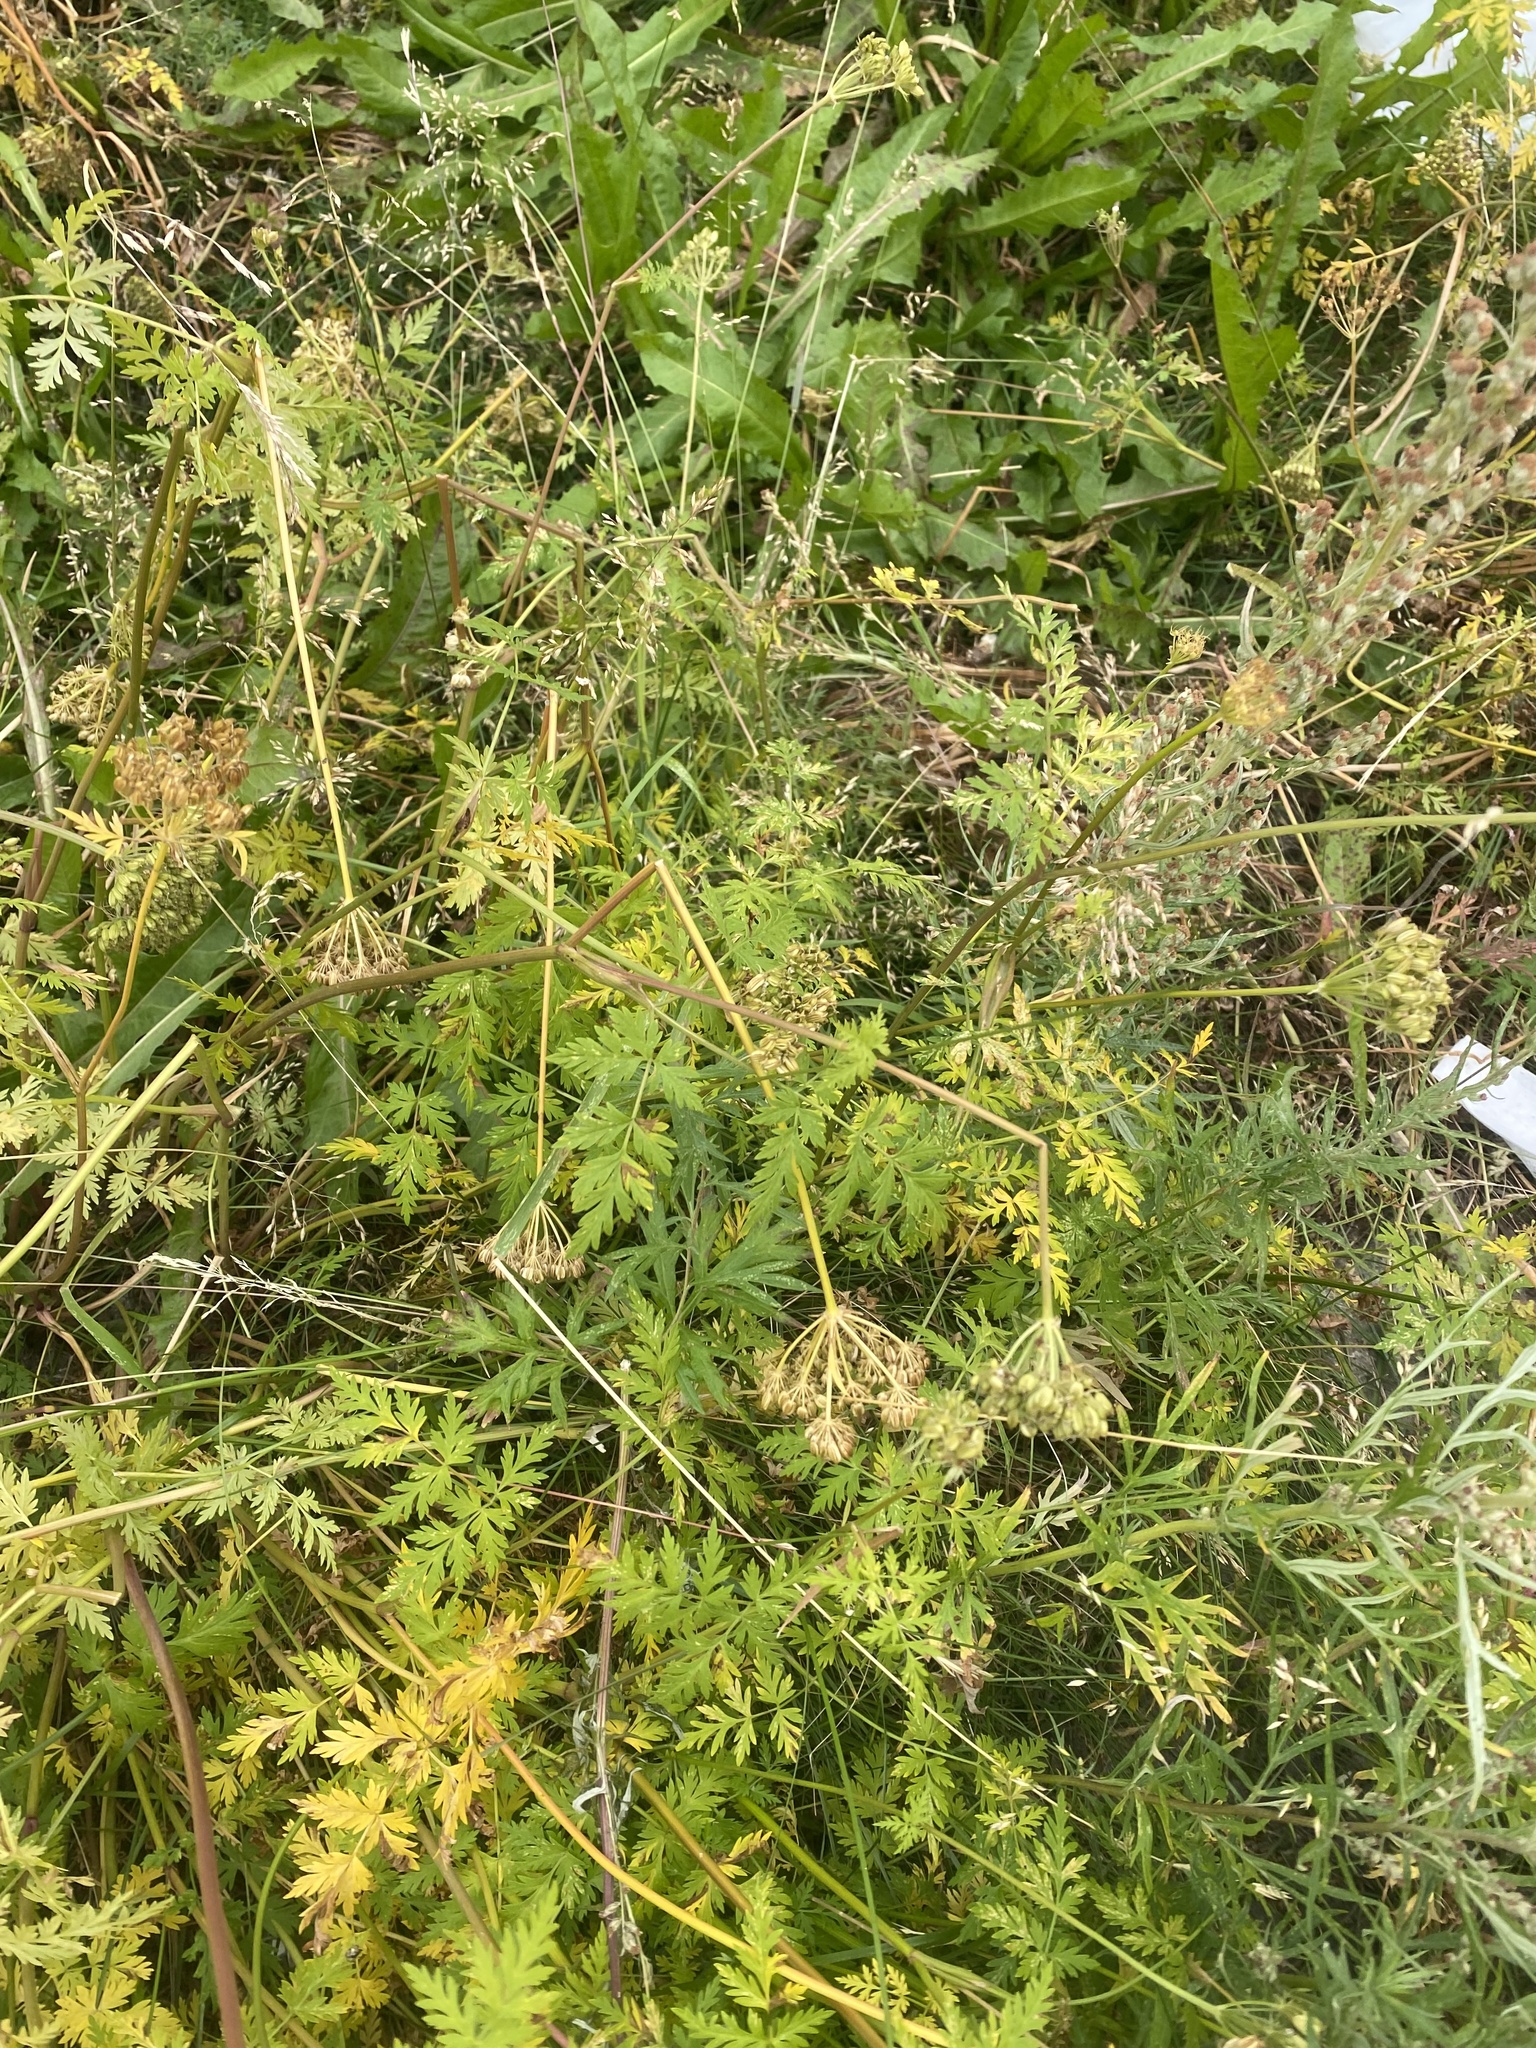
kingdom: Plantae
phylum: Tracheophyta
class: Magnoliopsida
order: Apiales
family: Apiaceae
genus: Seseli
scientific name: Seseli condensatum
